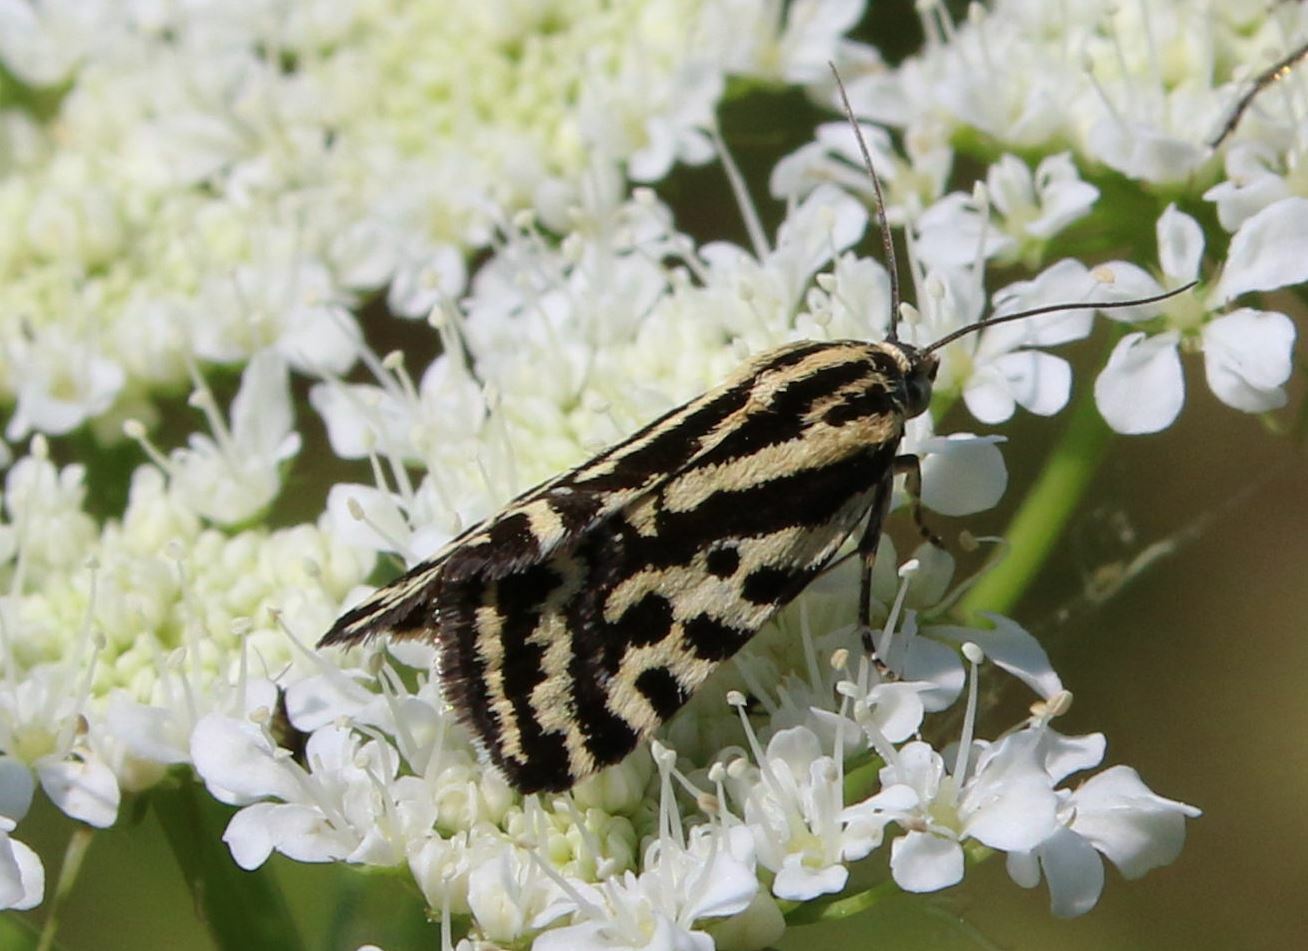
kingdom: Animalia
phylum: Arthropoda
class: Insecta
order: Lepidoptera
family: Noctuidae
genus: Acontia
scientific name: Acontia trabealis
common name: Spotted sulphur
